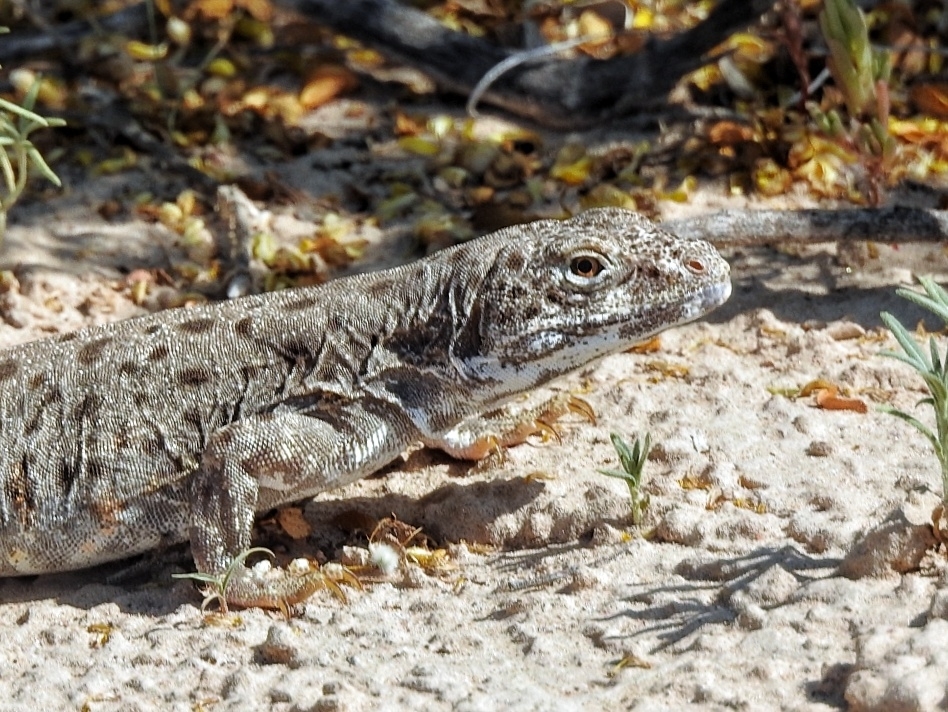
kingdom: Animalia
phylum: Chordata
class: Squamata
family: Crotaphytidae
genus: Gambelia
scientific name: Gambelia wislizenii
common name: Longnose leopard lizard
